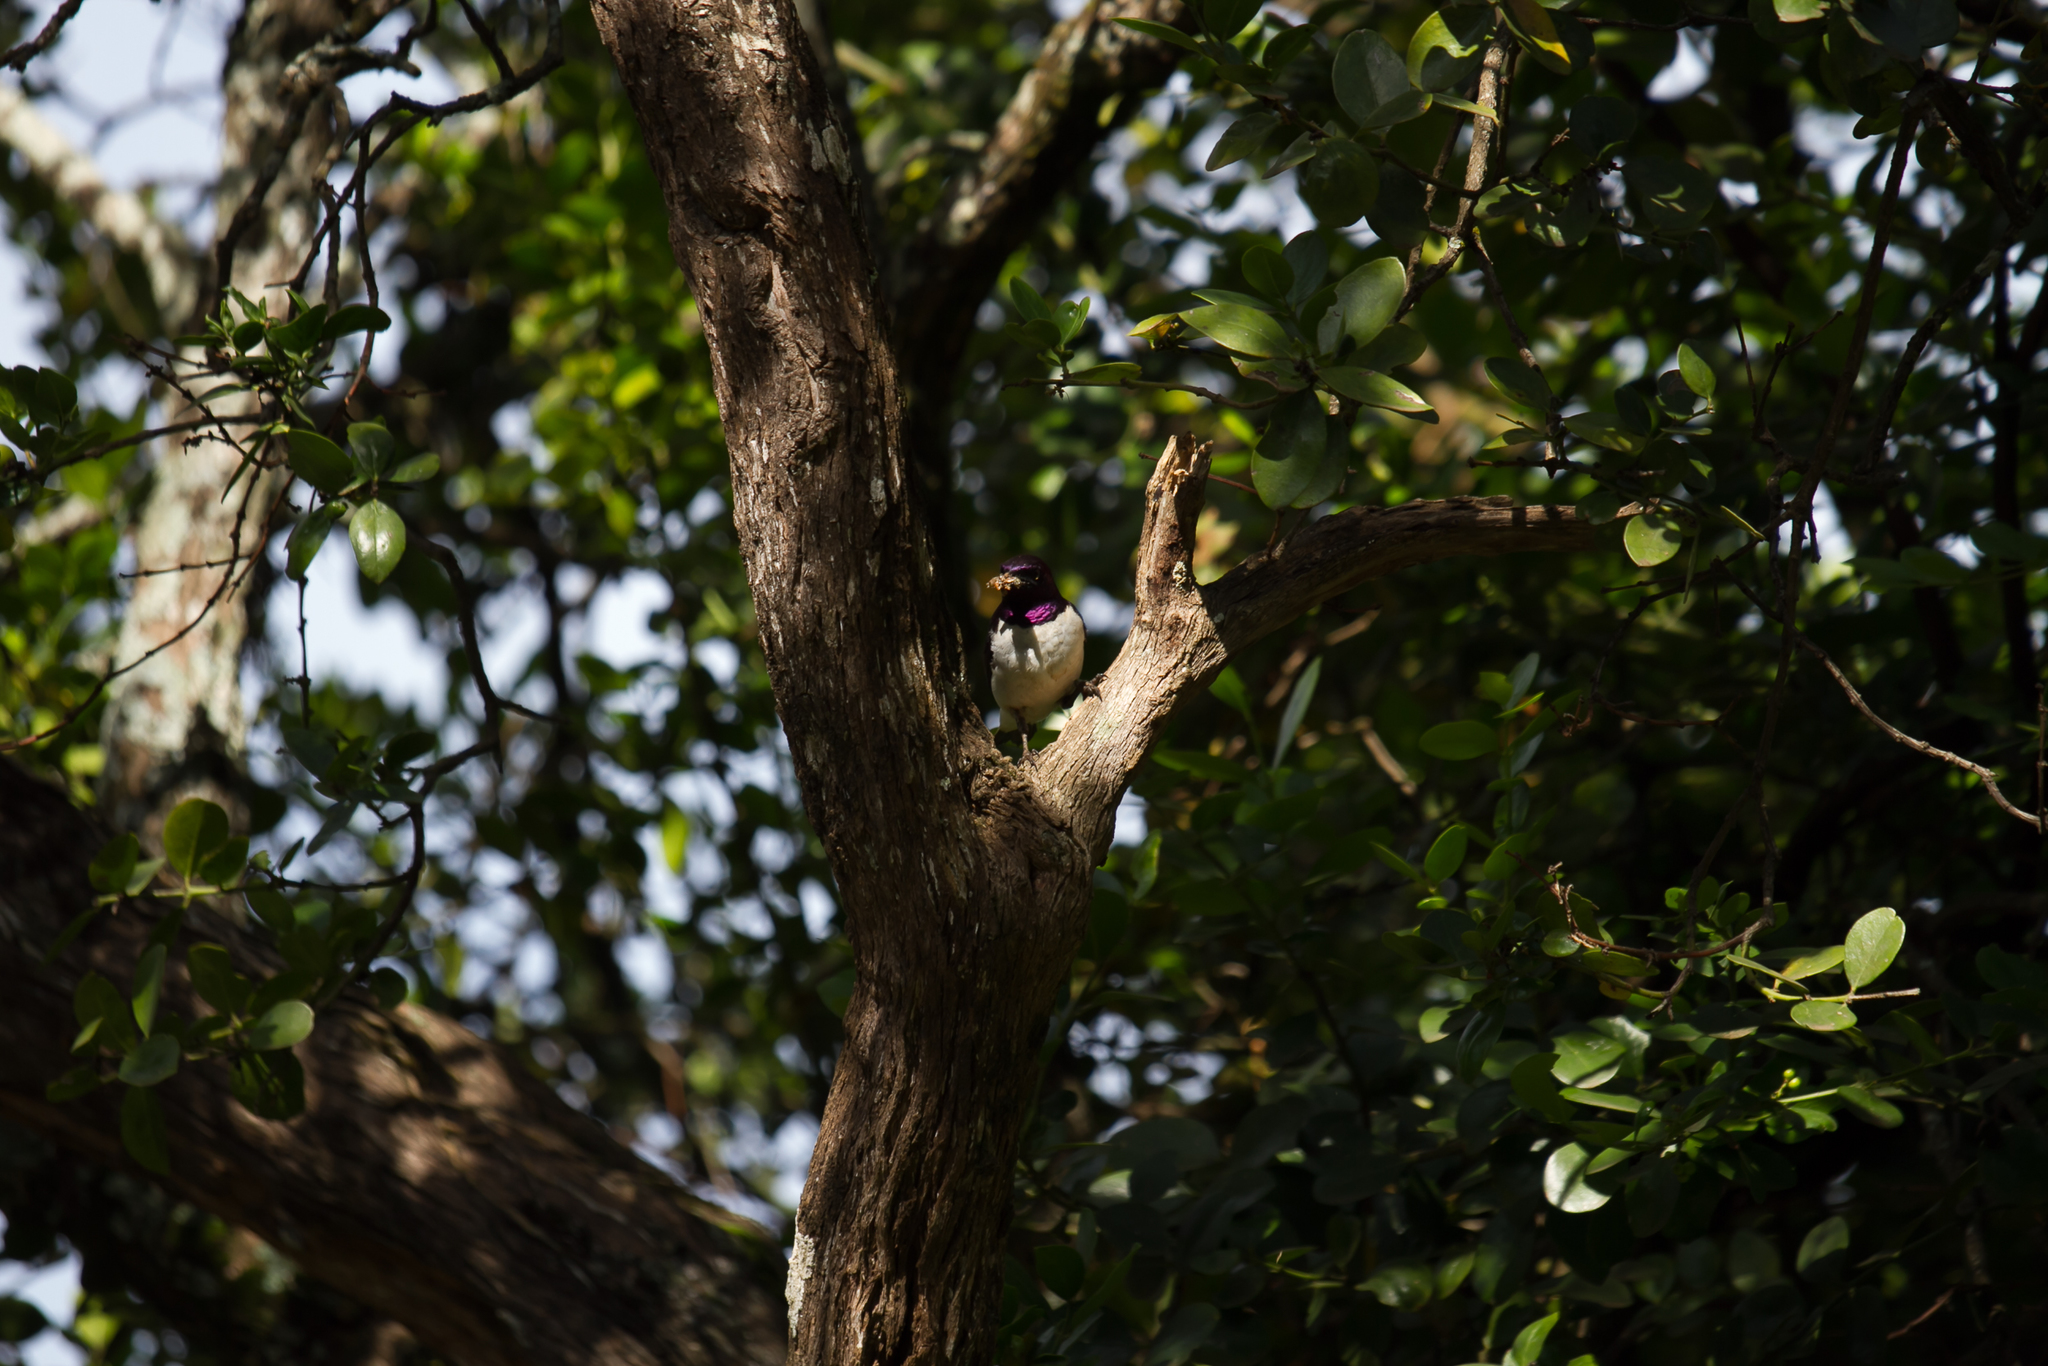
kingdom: Animalia
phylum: Chordata
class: Aves
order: Passeriformes
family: Sturnidae
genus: Cinnyricinclus
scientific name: Cinnyricinclus leucogaster
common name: Violet-backed starling
